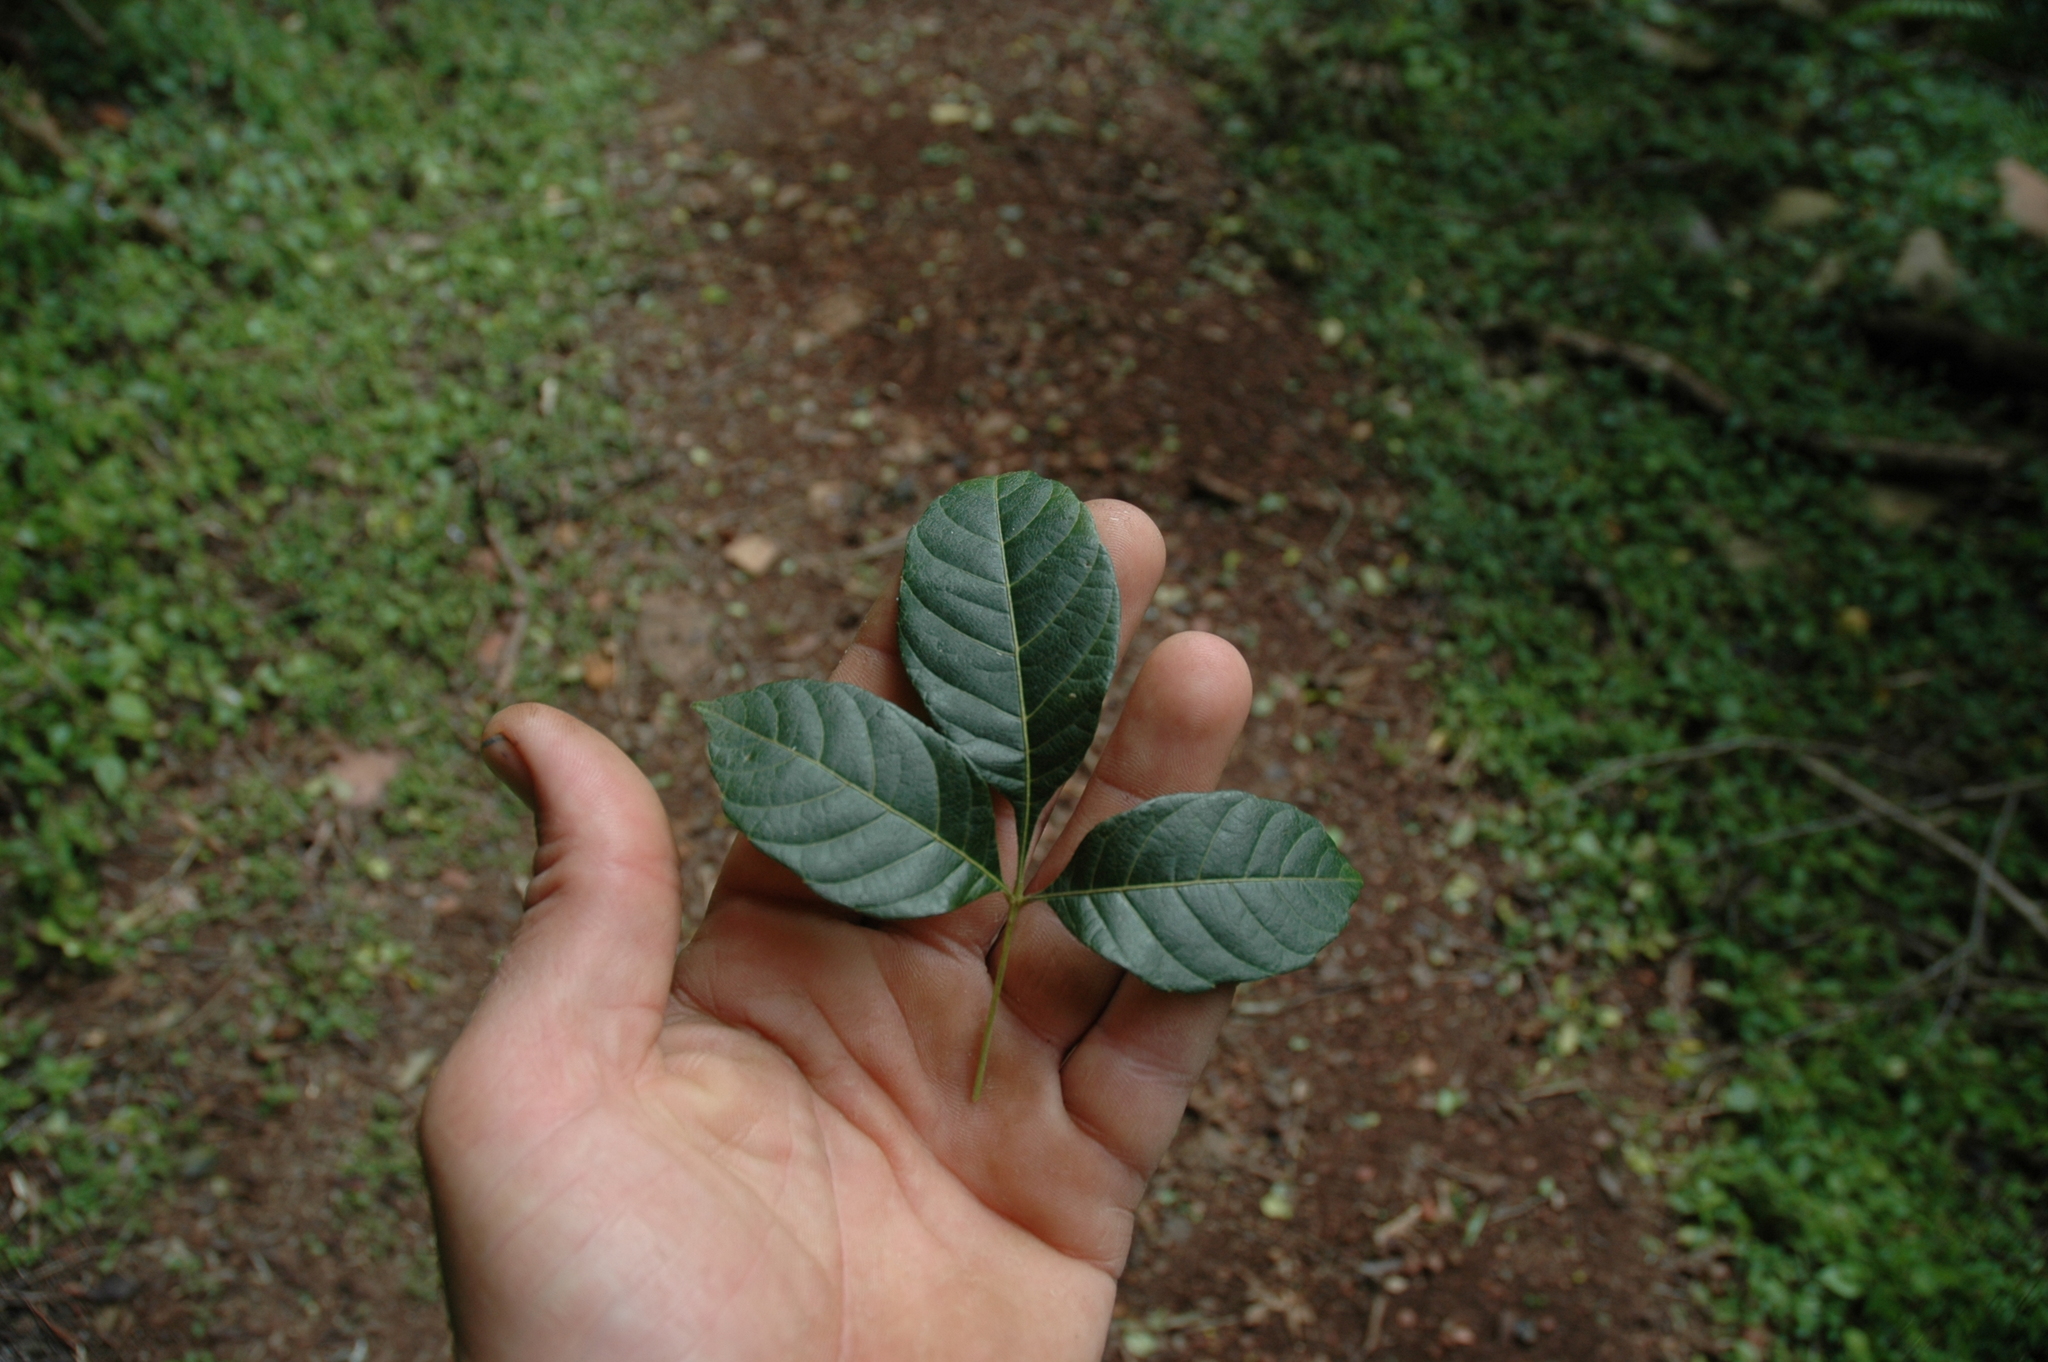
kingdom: Plantae
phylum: Tracheophyta
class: Magnoliopsida
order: Sapindales
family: Sapindaceae
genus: Allophylus
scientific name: Allophylus africanus
